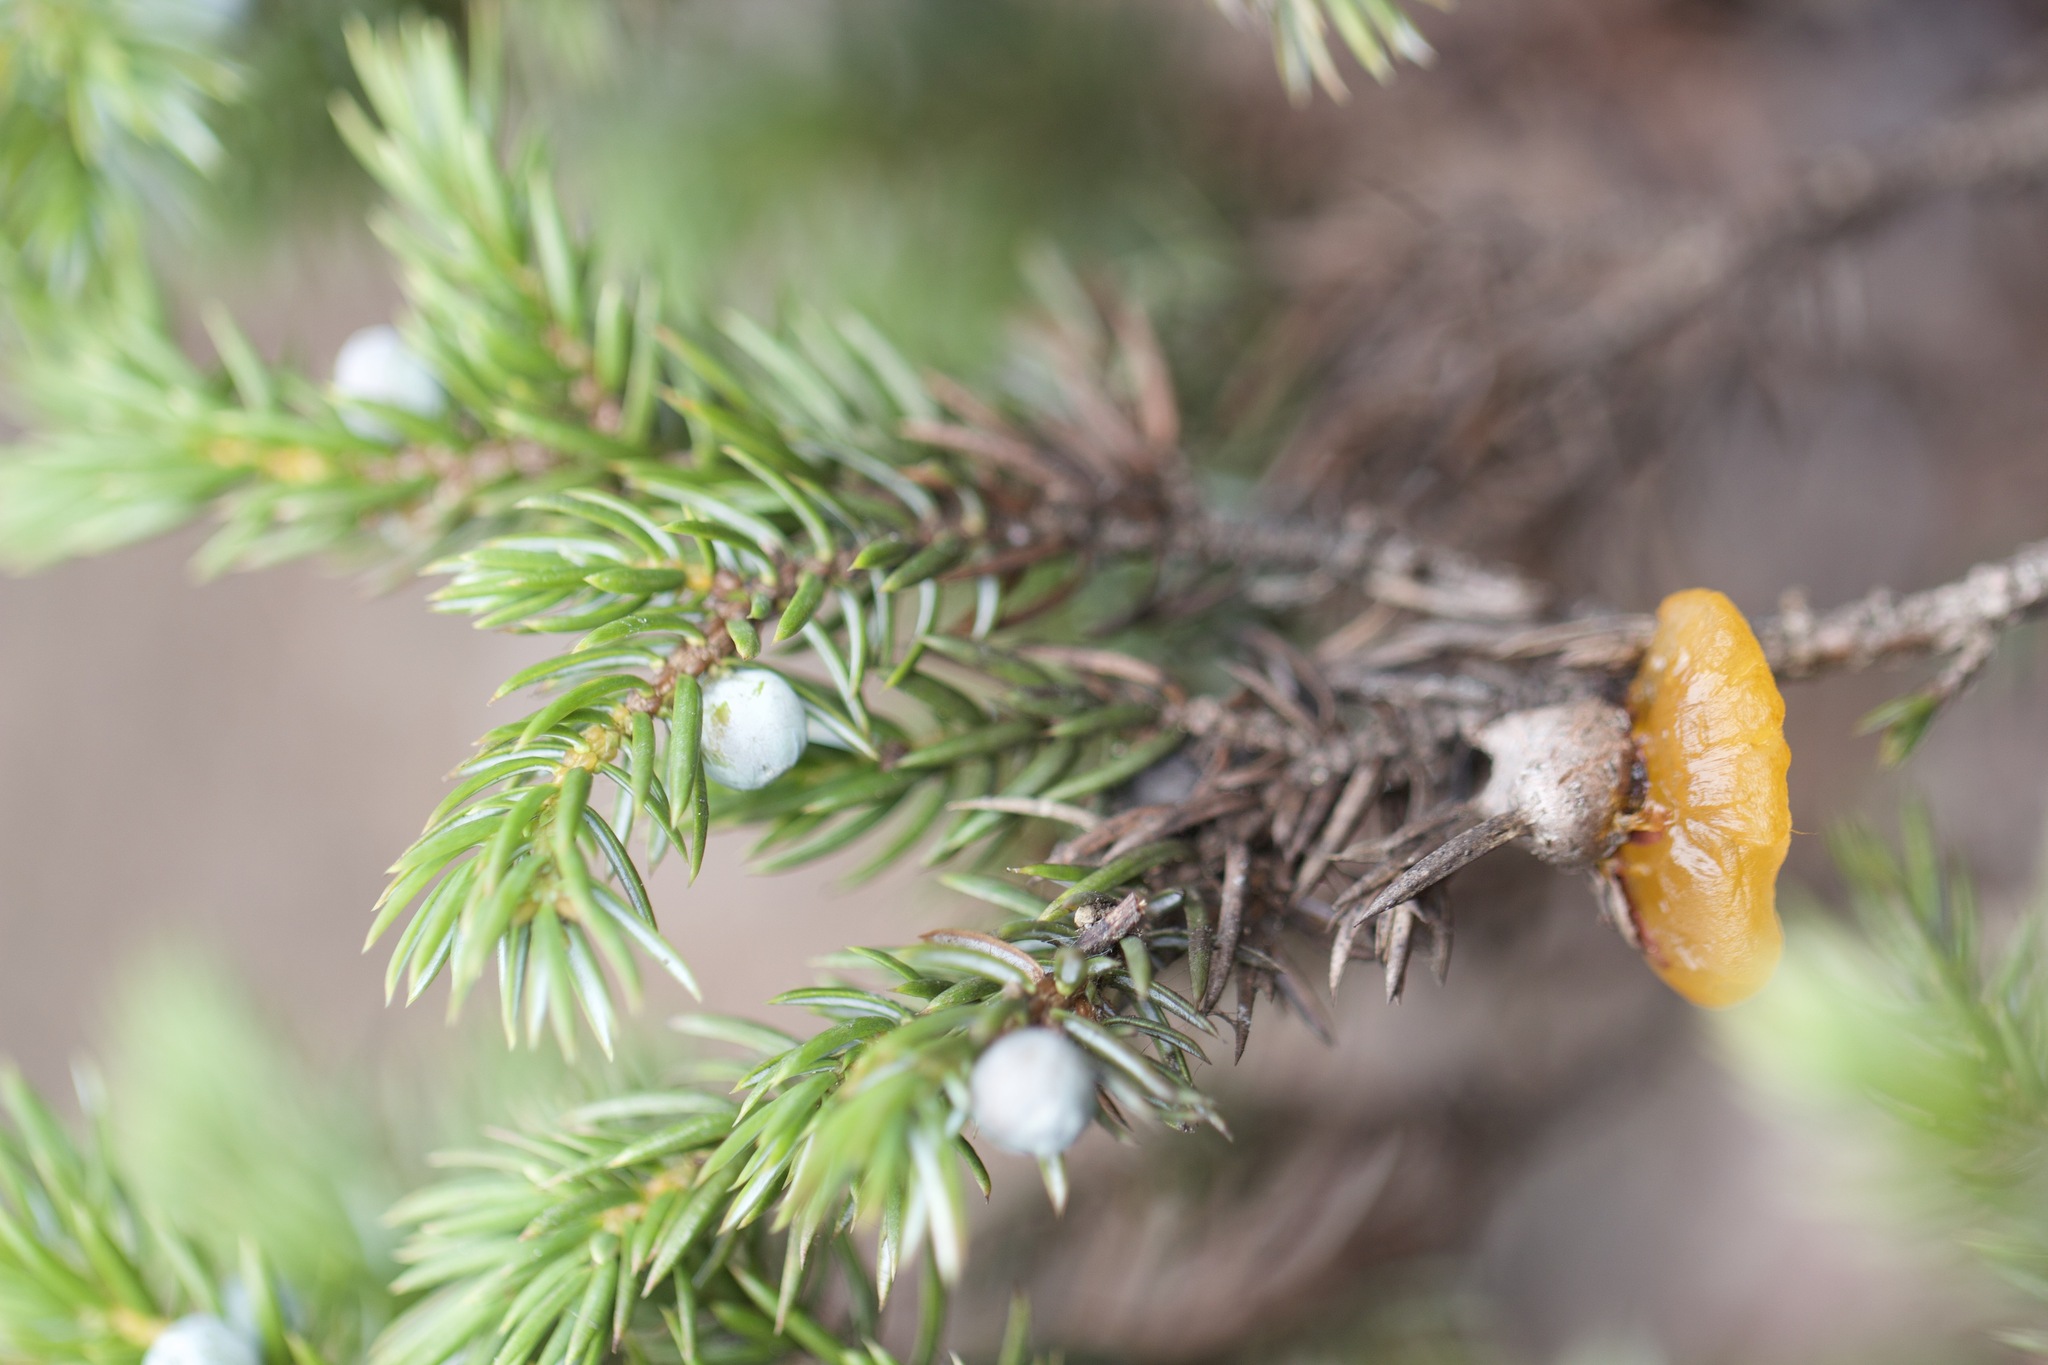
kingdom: Fungi
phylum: Basidiomycota
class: Pucciniomycetes
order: Pucciniales
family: Gymnosporangiaceae
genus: Gymnosporangium
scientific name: Gymnosporangium juniperi-virginianae
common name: Juniper-apple rust
